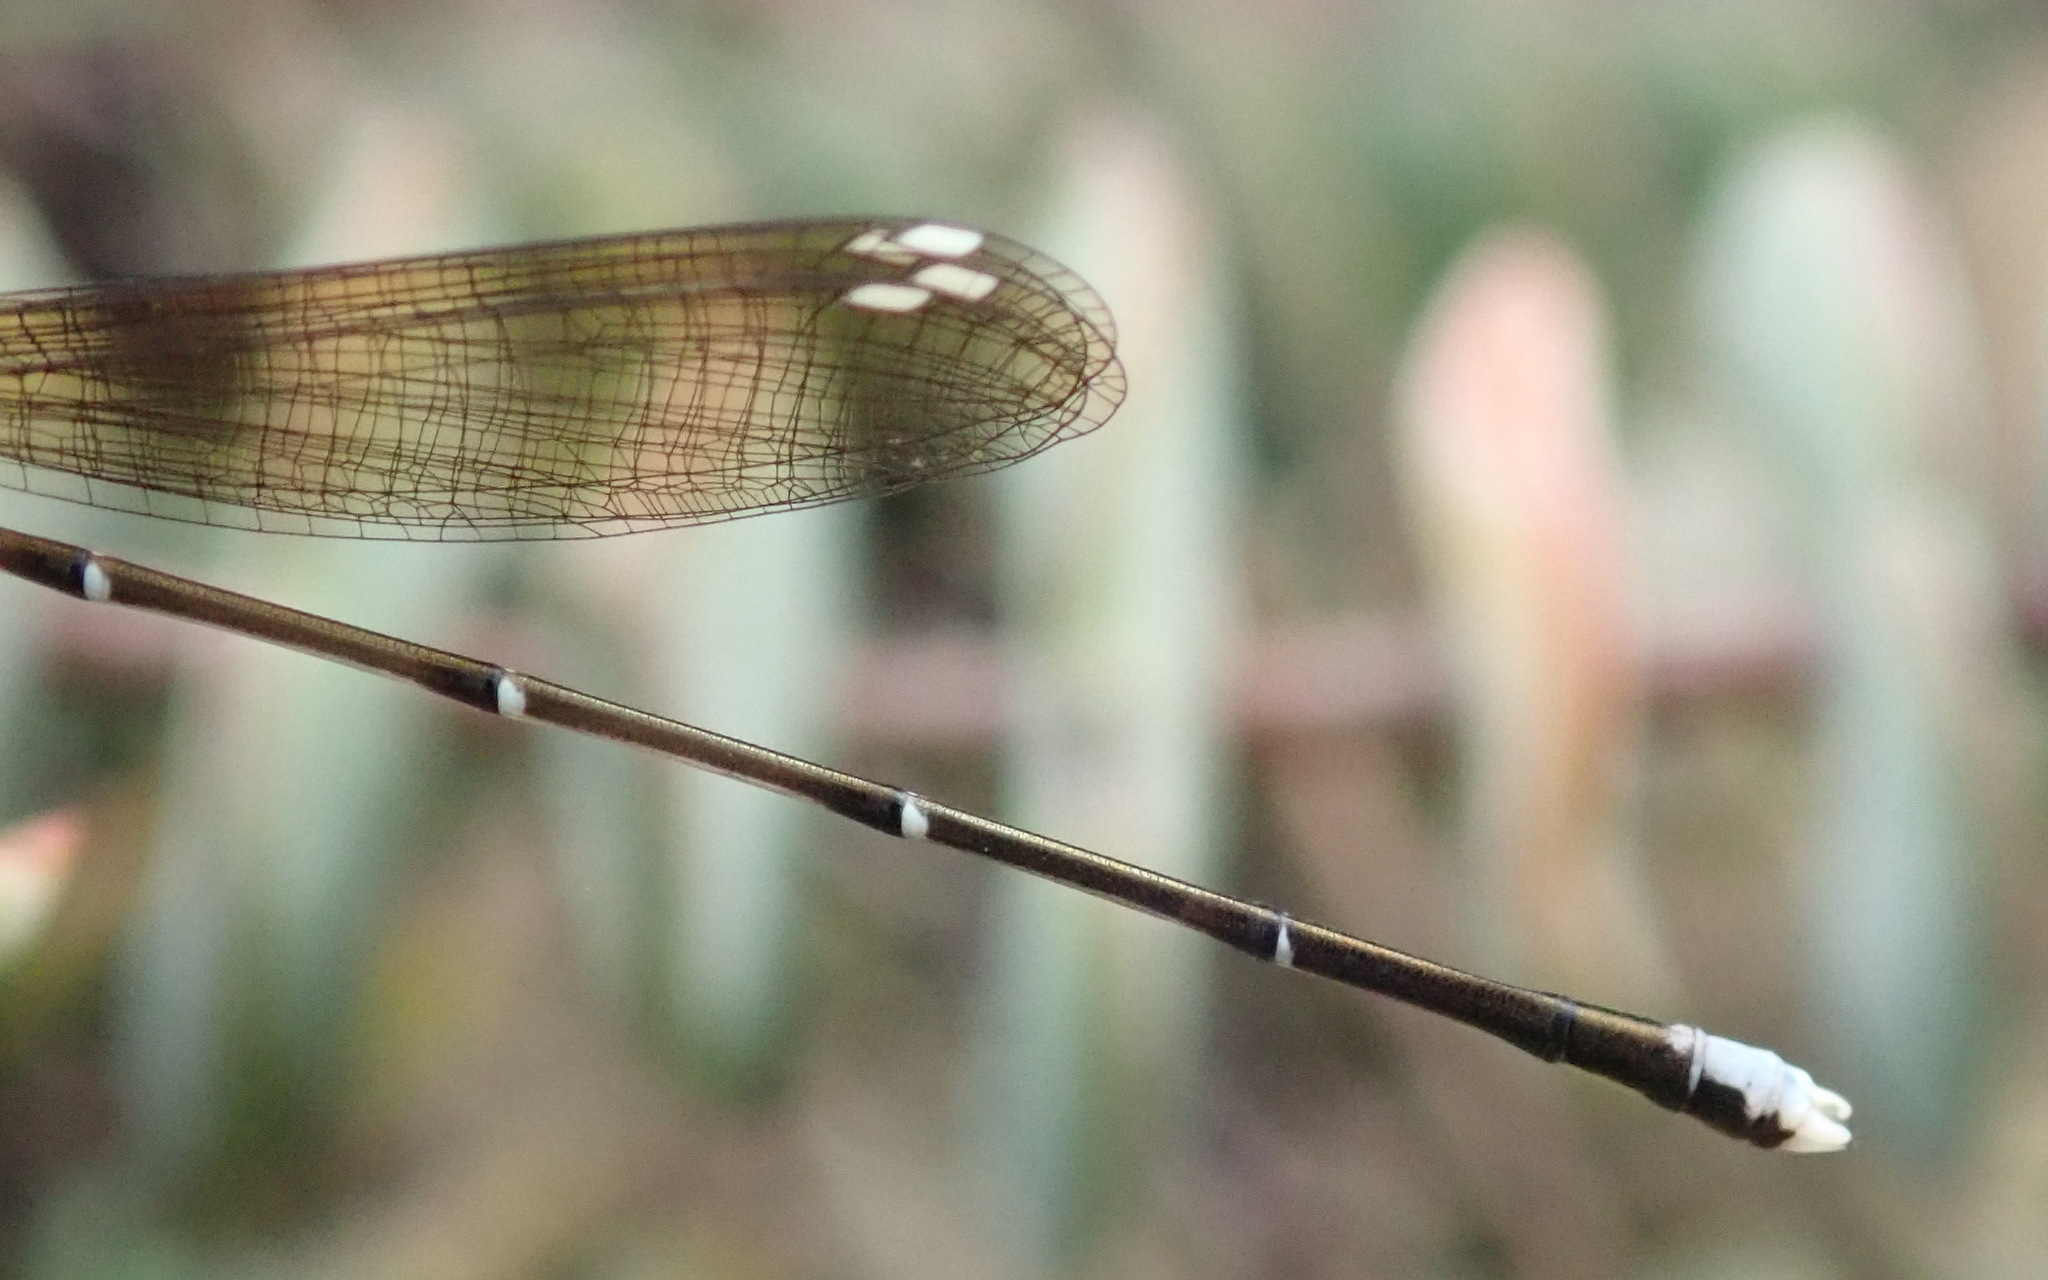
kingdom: Animalia
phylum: Arthropoda
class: Insecta
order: Odonata
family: Platycnemididae
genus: Allocnemis
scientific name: Allocnemis leucosticta
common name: Goldtail
